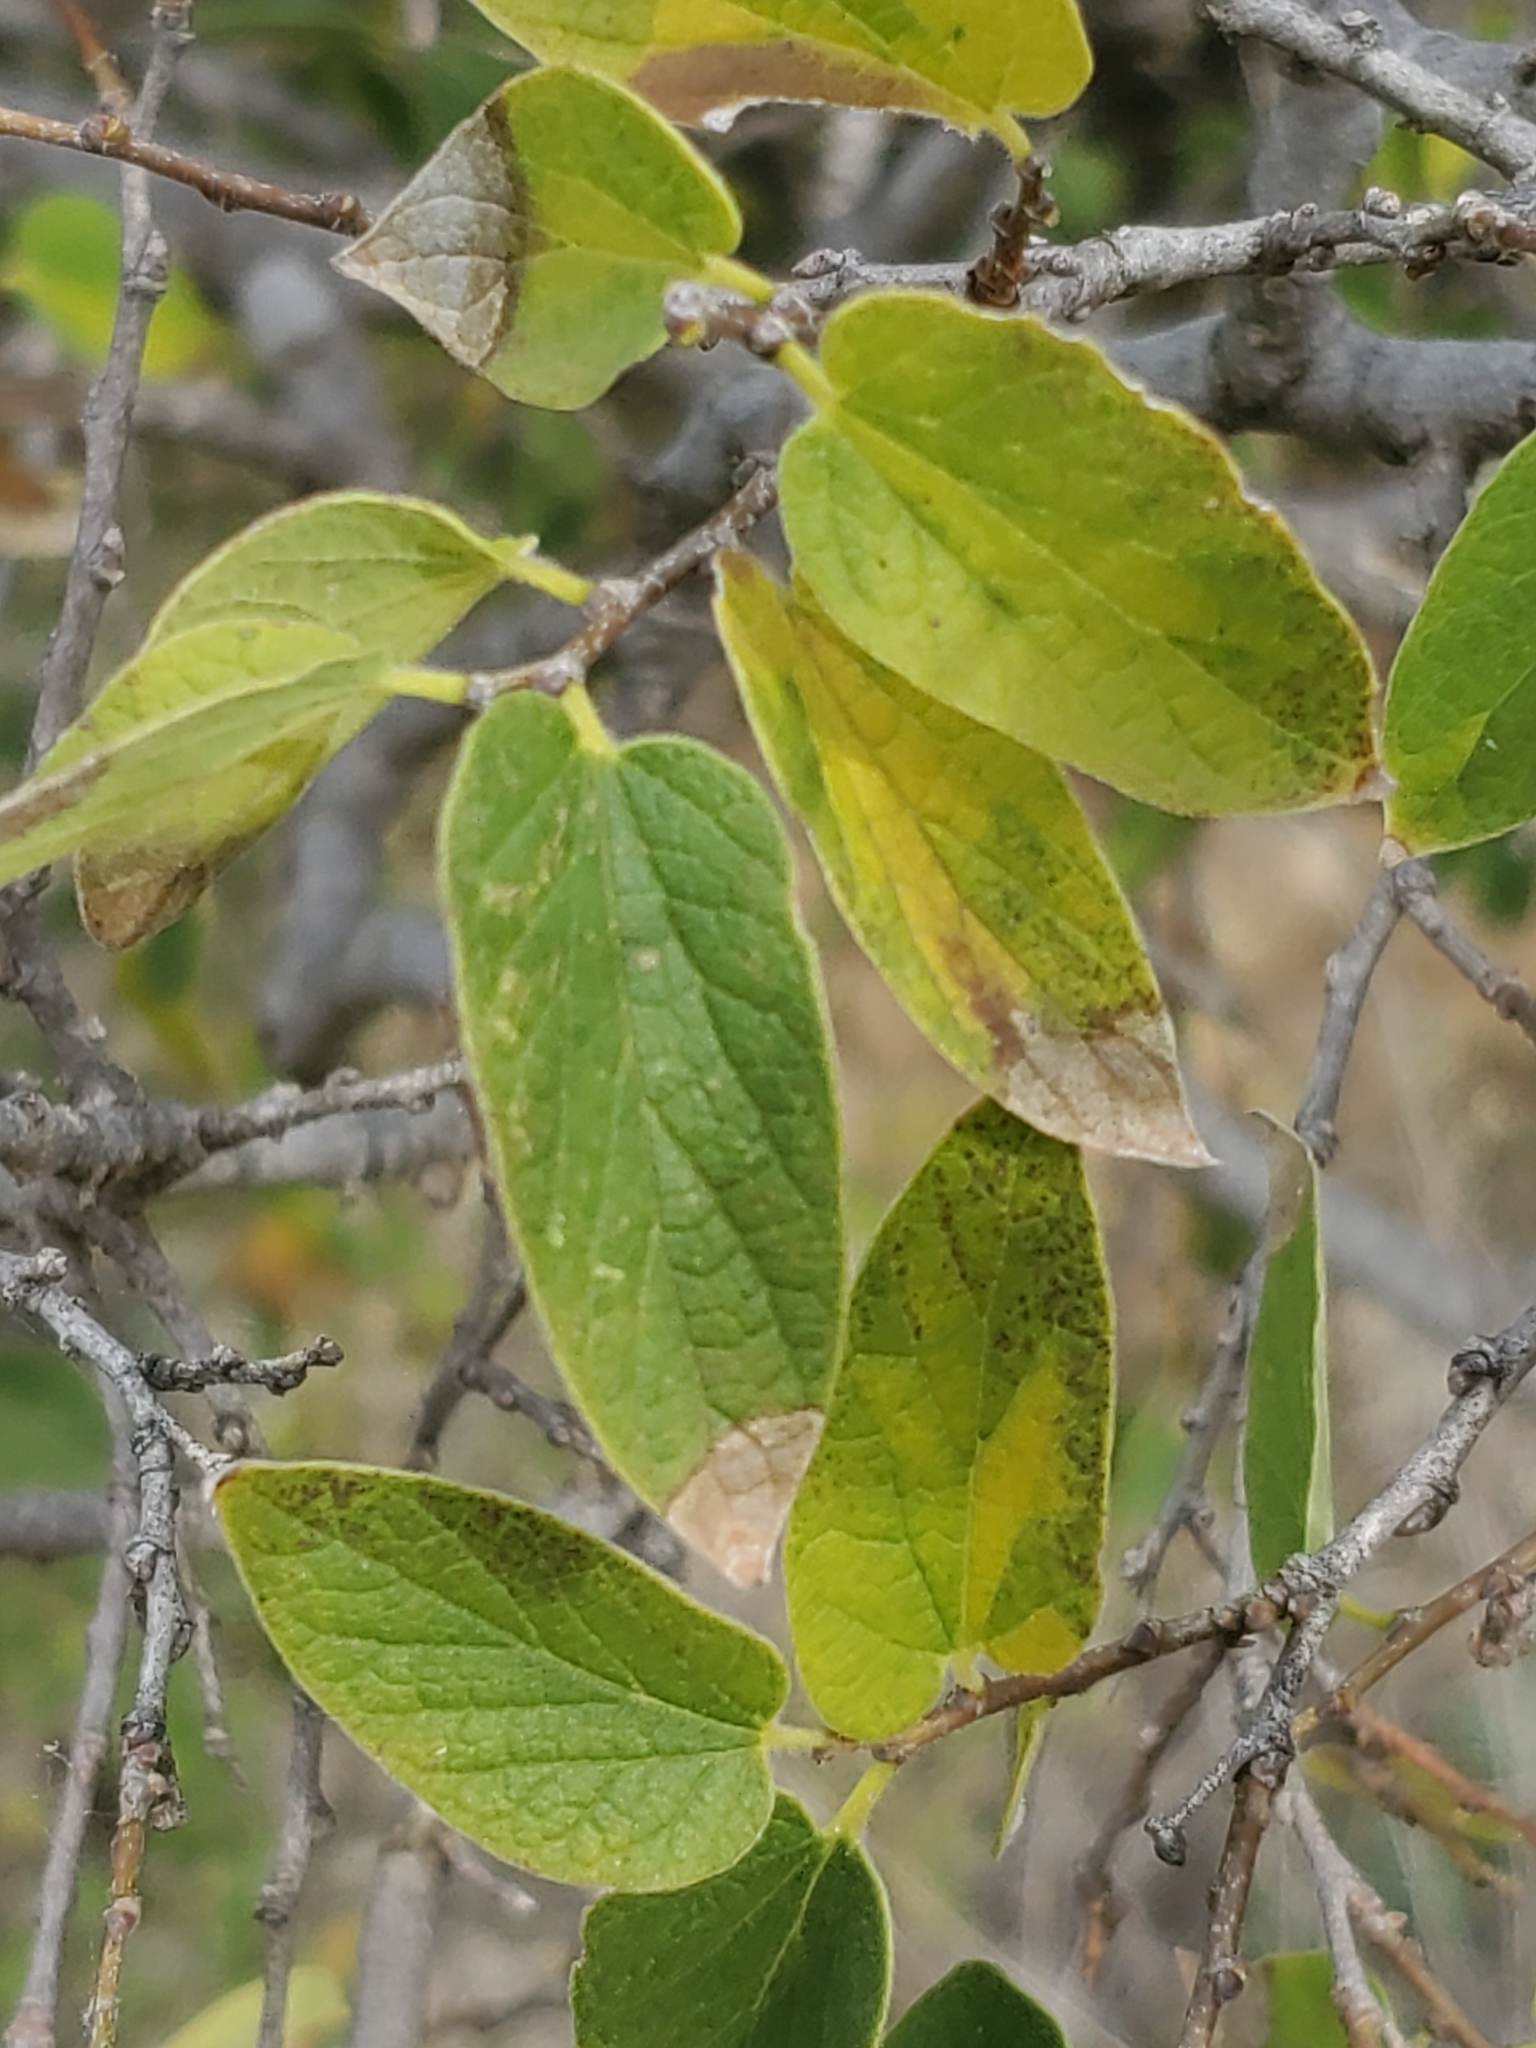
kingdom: Plantae
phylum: Tracheophyta
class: Magnoliopsida
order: Rosales
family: Cannabaceae
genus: Celtis
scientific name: Celtis reticulata
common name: Netleaf hackberry
